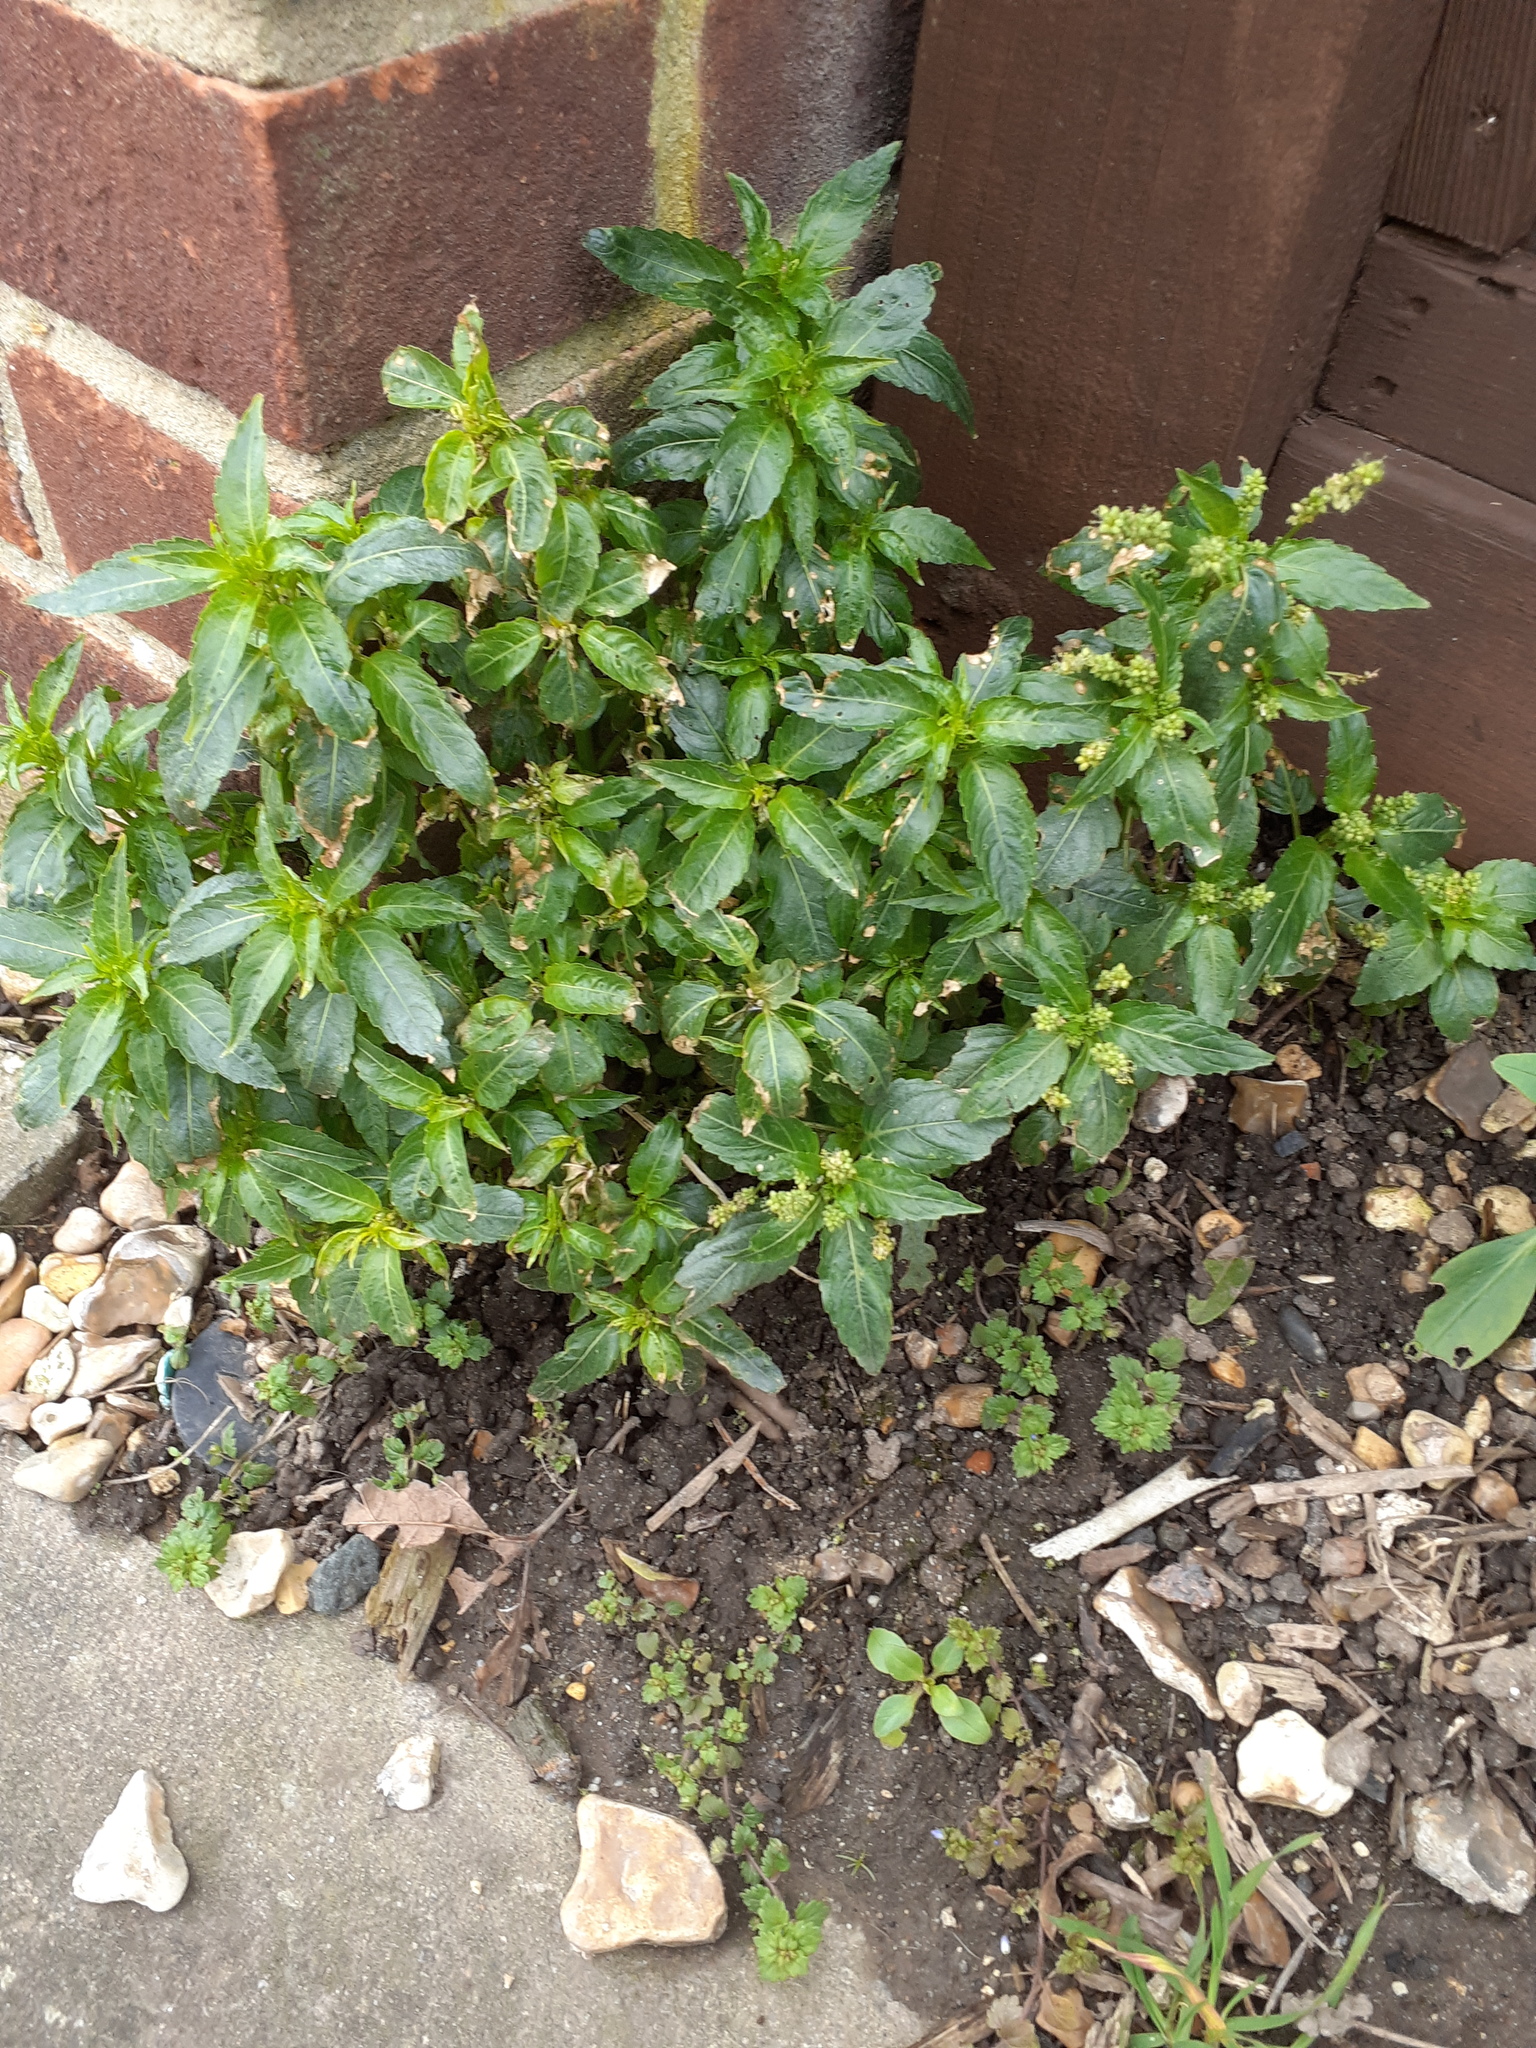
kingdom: Plantae
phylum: Tracheophyta
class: Magnoliopsida
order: Malpighiales
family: Euphorbiaceae
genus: Mercurialis
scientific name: Mercurialis annua
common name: Annual mercury
